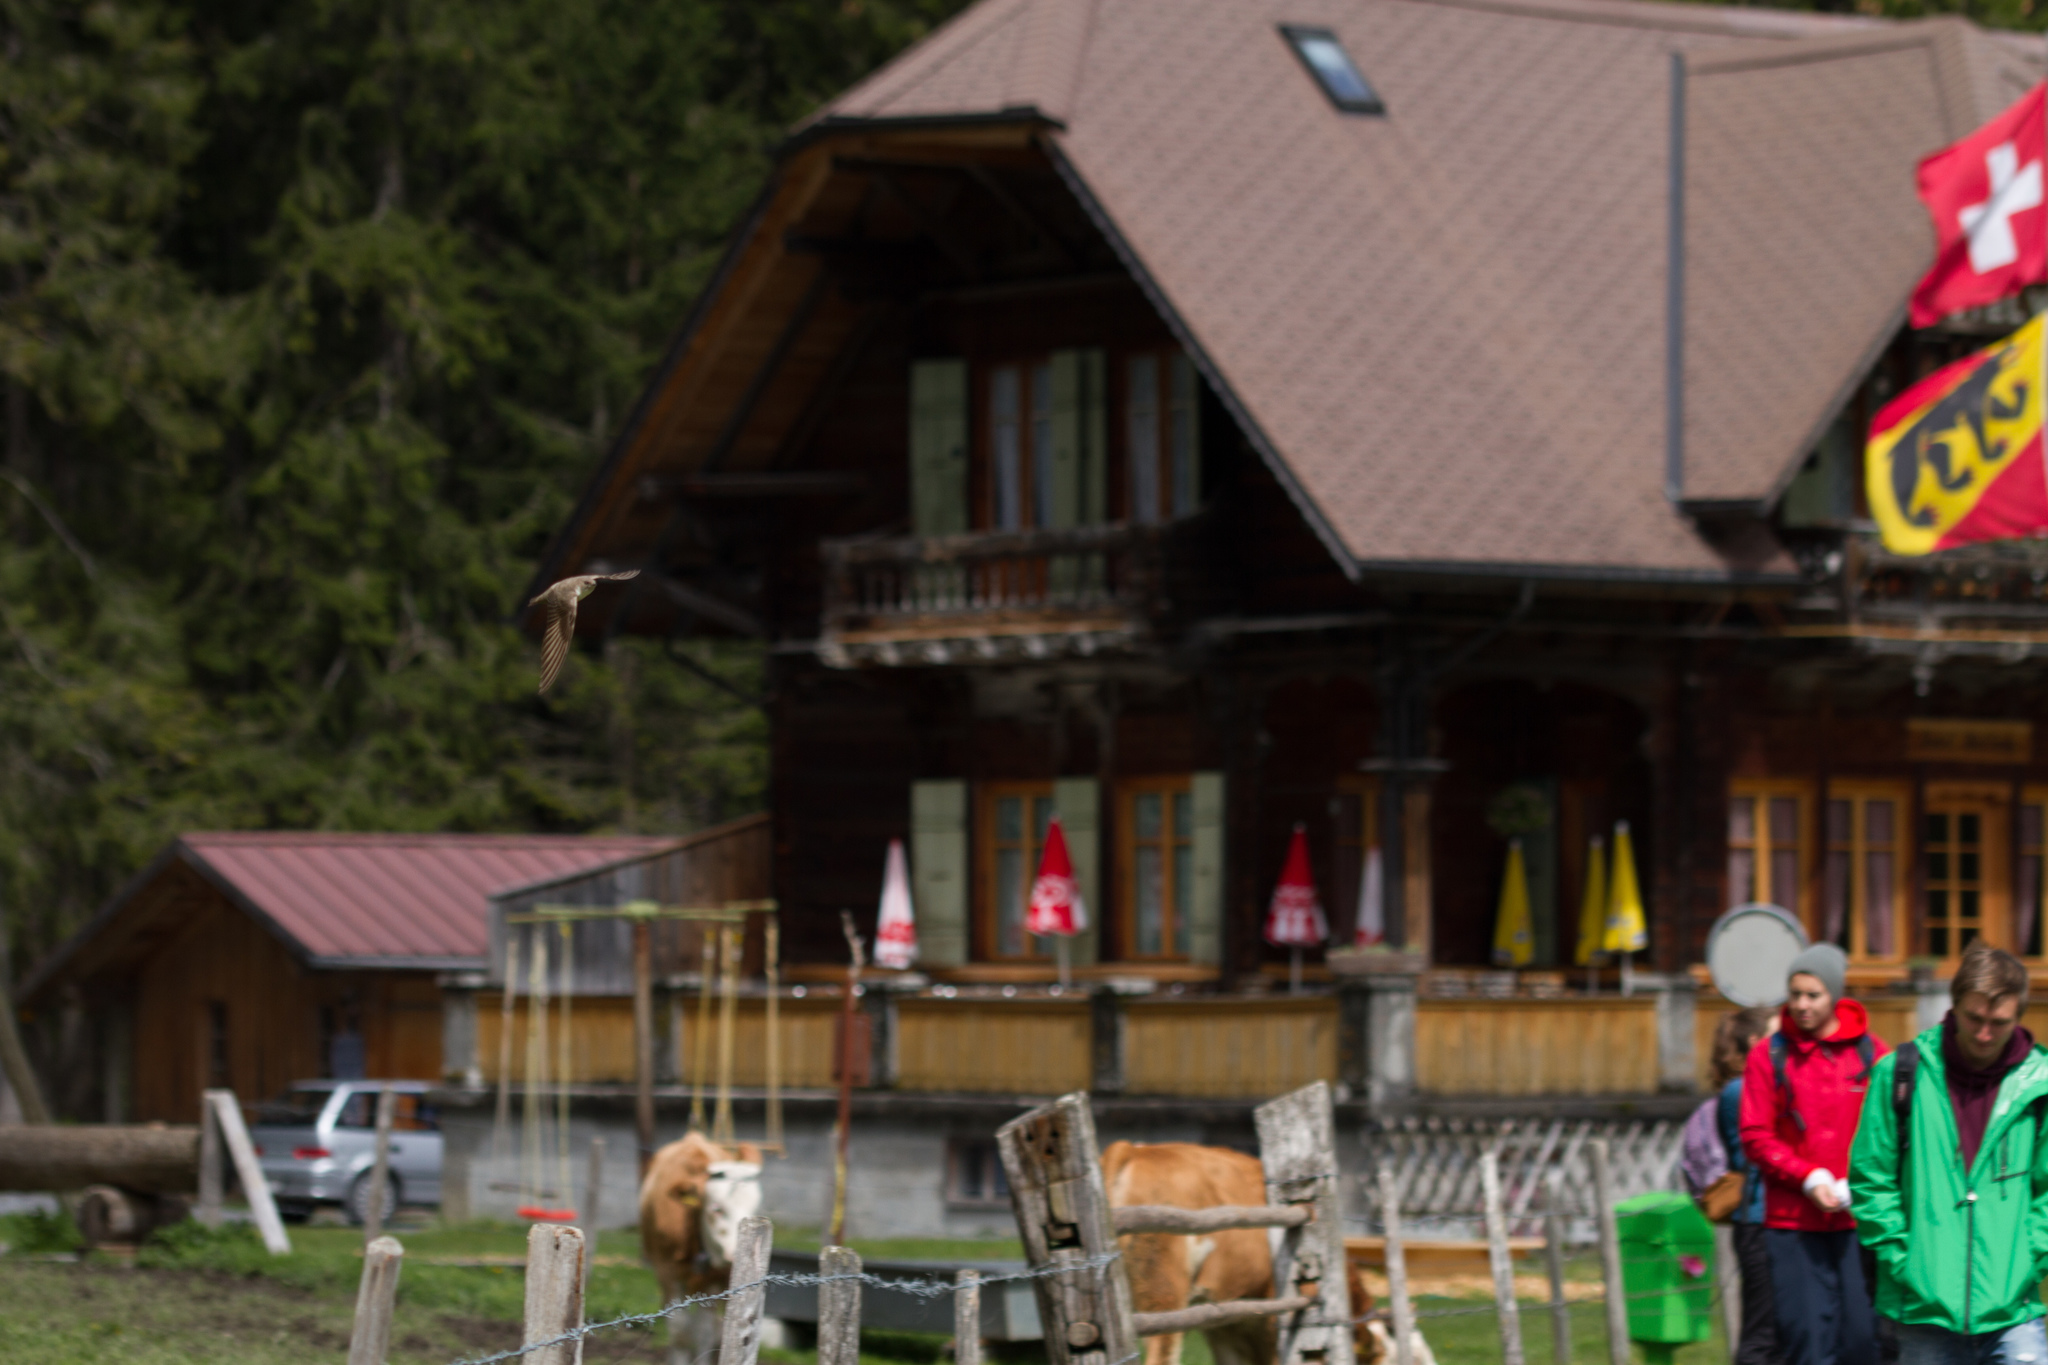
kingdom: Animalia
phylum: Chordata
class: Aves
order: Passeriformes
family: Hirundinidae
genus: Ptyonoprogne
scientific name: Ptyonoprogne rupestris
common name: Eurasian crag martin
